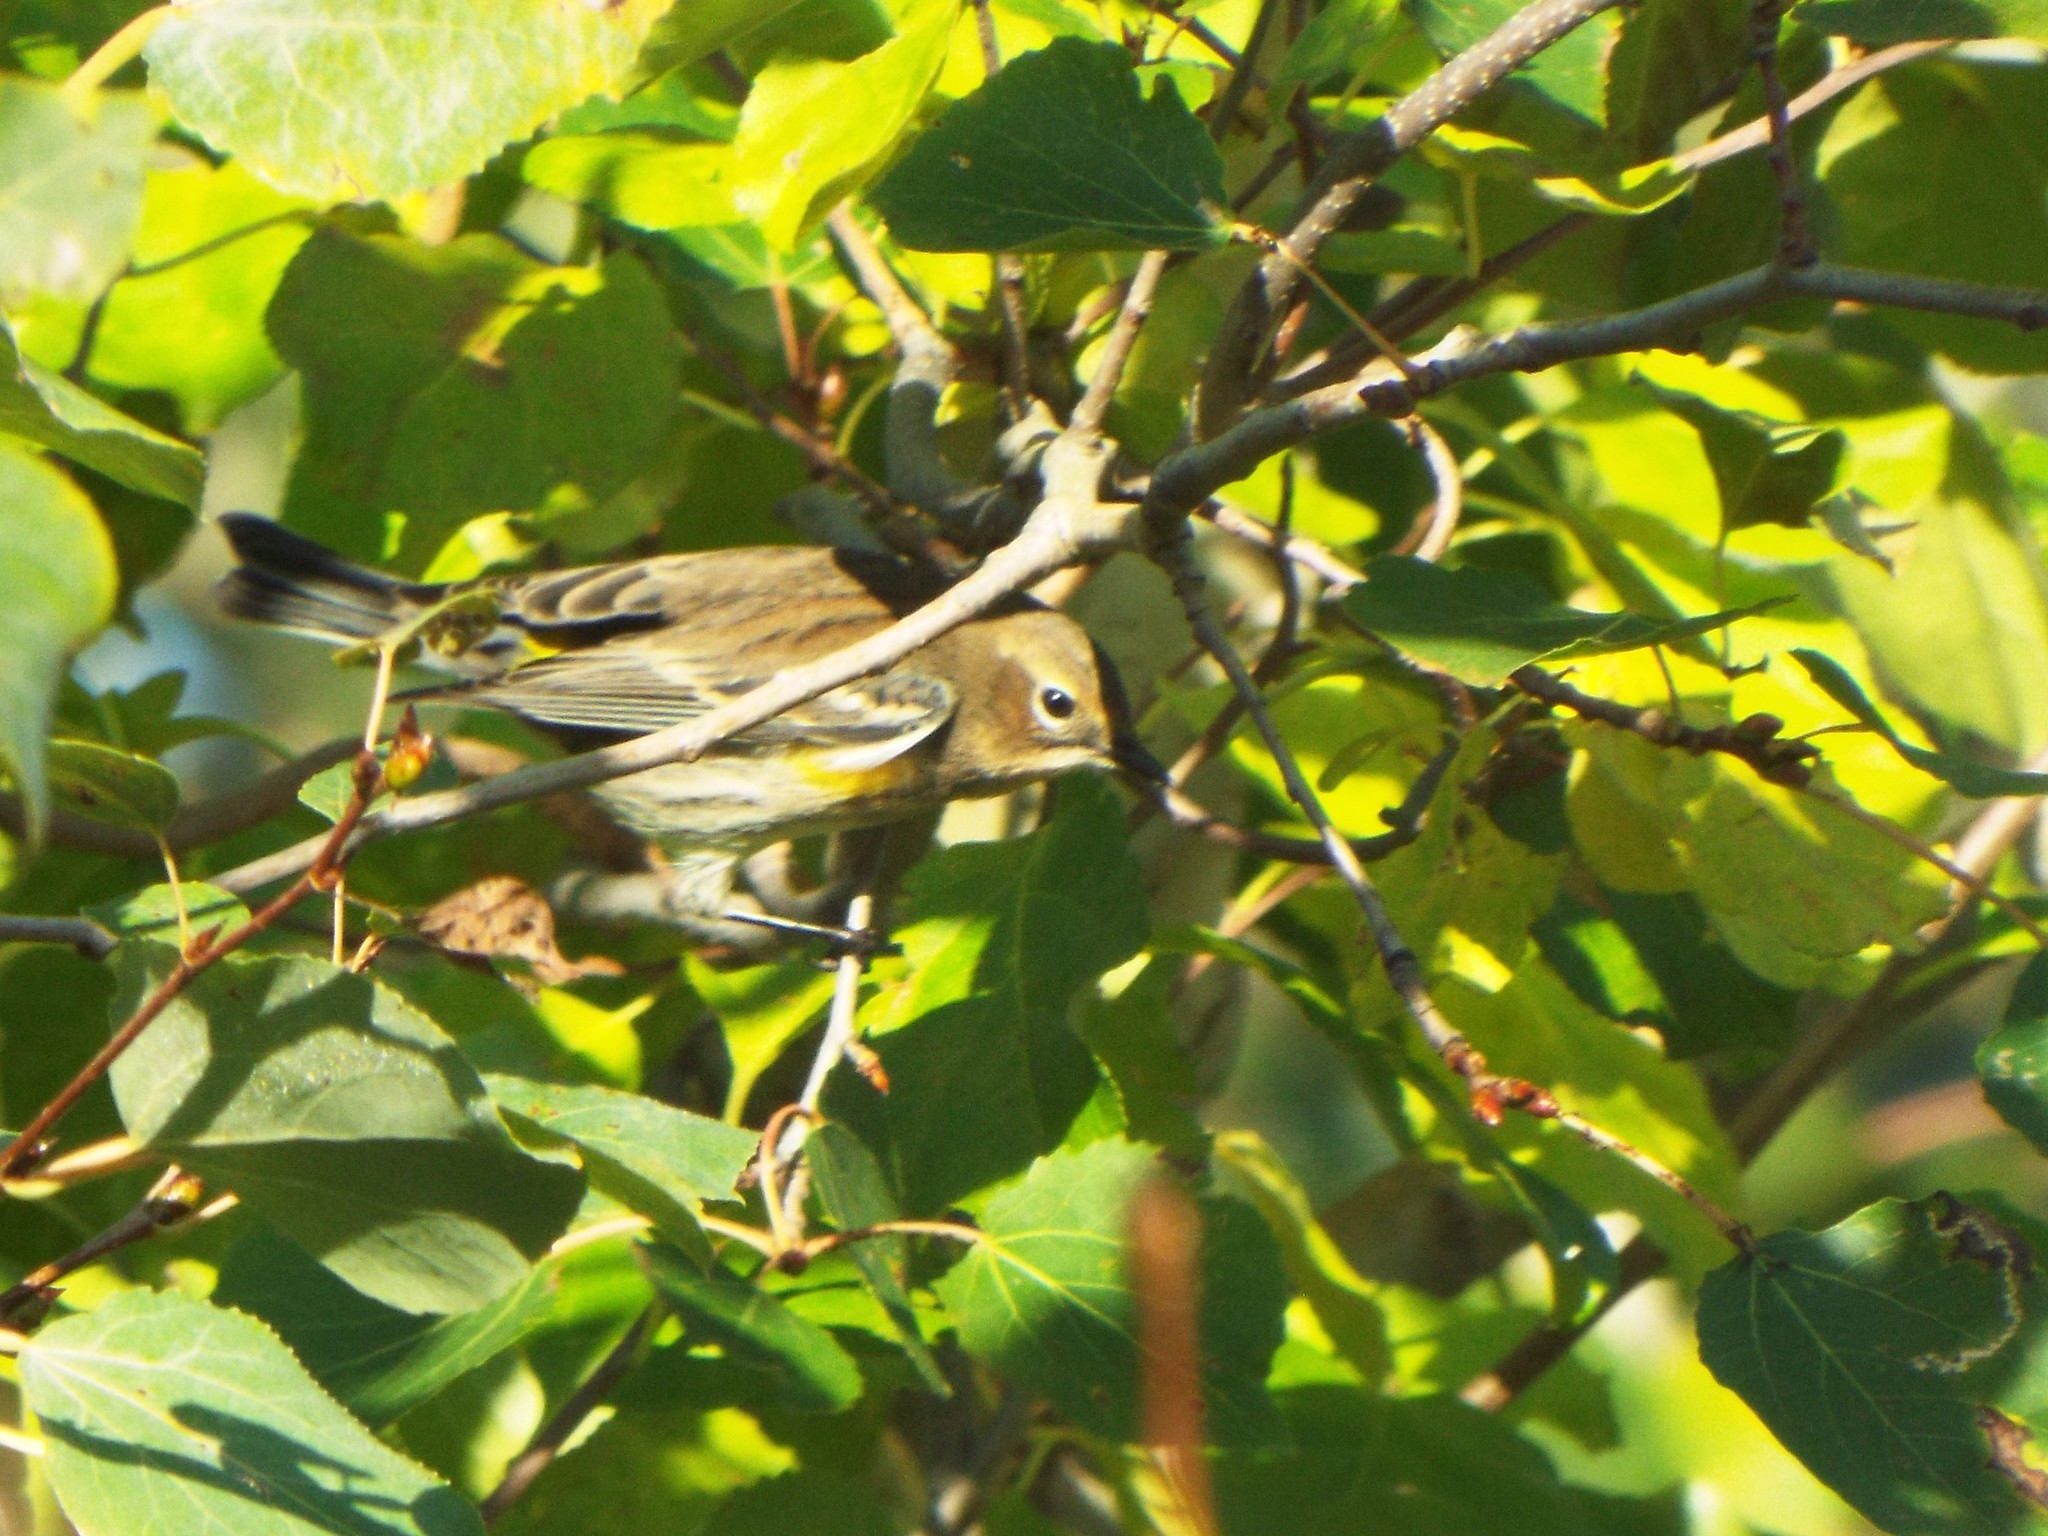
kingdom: Animalia
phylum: Chordata
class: Aves
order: Passeriformes
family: Parulidae
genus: Setophaga
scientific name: Setophaga coronata
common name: Myrtle warbler
